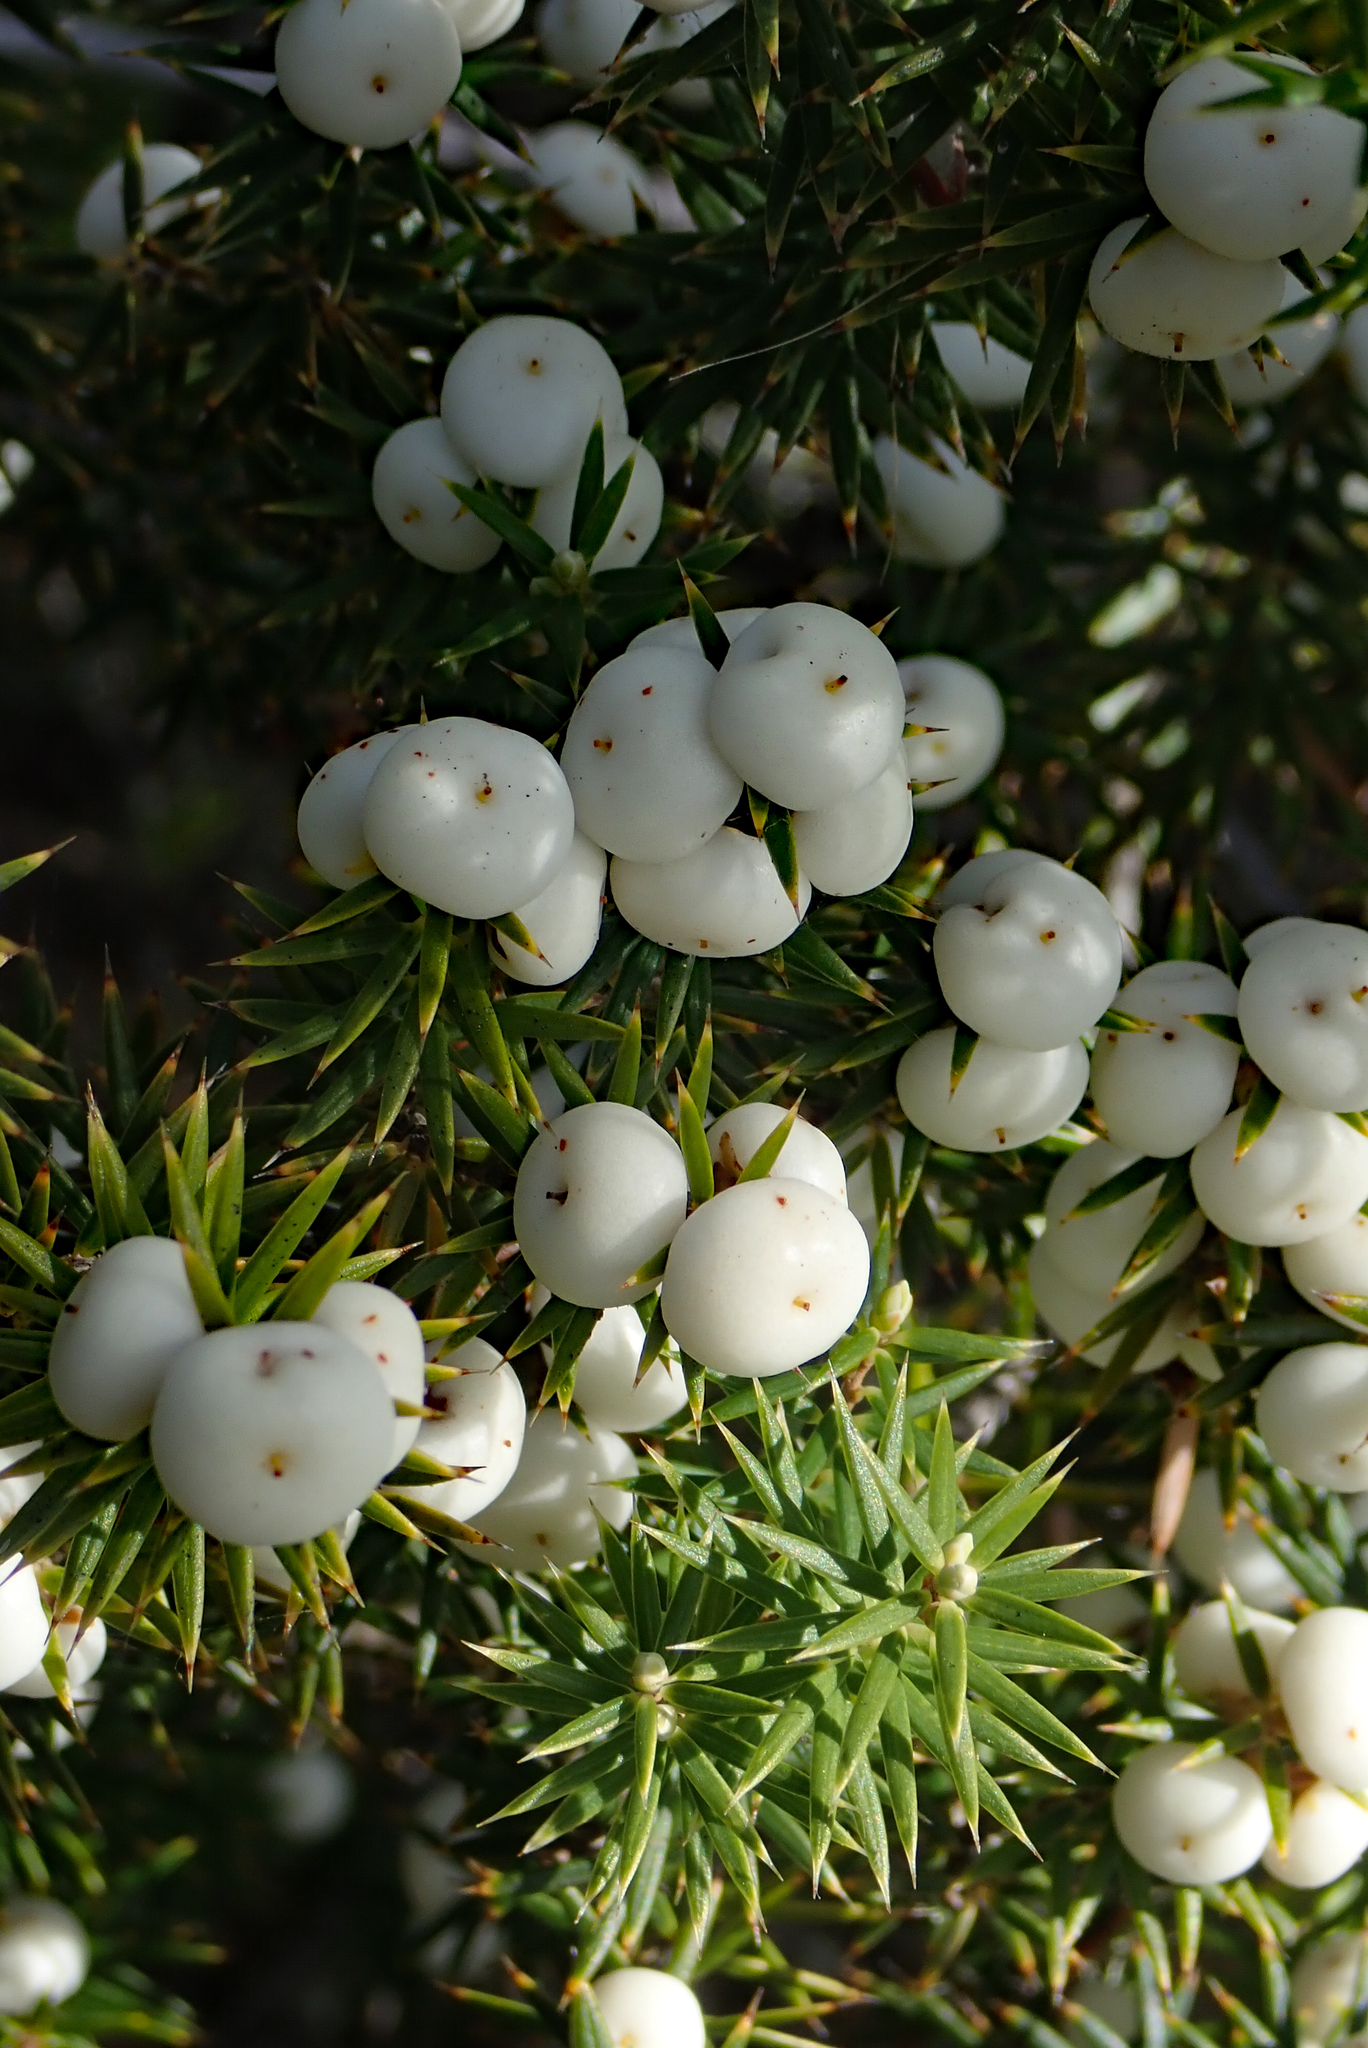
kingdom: Plantae
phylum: Tracheophyta
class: Magnoliopsida
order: Ericales
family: Ericaceae
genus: Leptecophylla
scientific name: Leptecophylla juniperina
